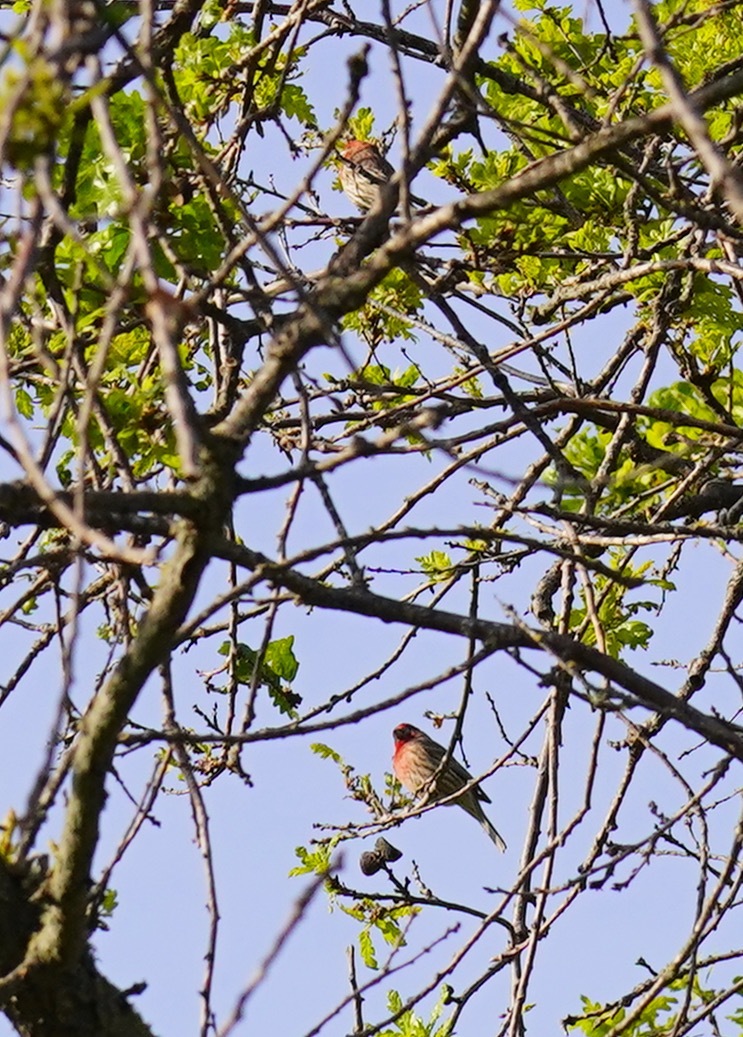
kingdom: Animalia
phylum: Chordata
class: Aves
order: Passeriformes
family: Fringillidae
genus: Haemorhous
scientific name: Haemorhous mexicanus
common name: House finch
